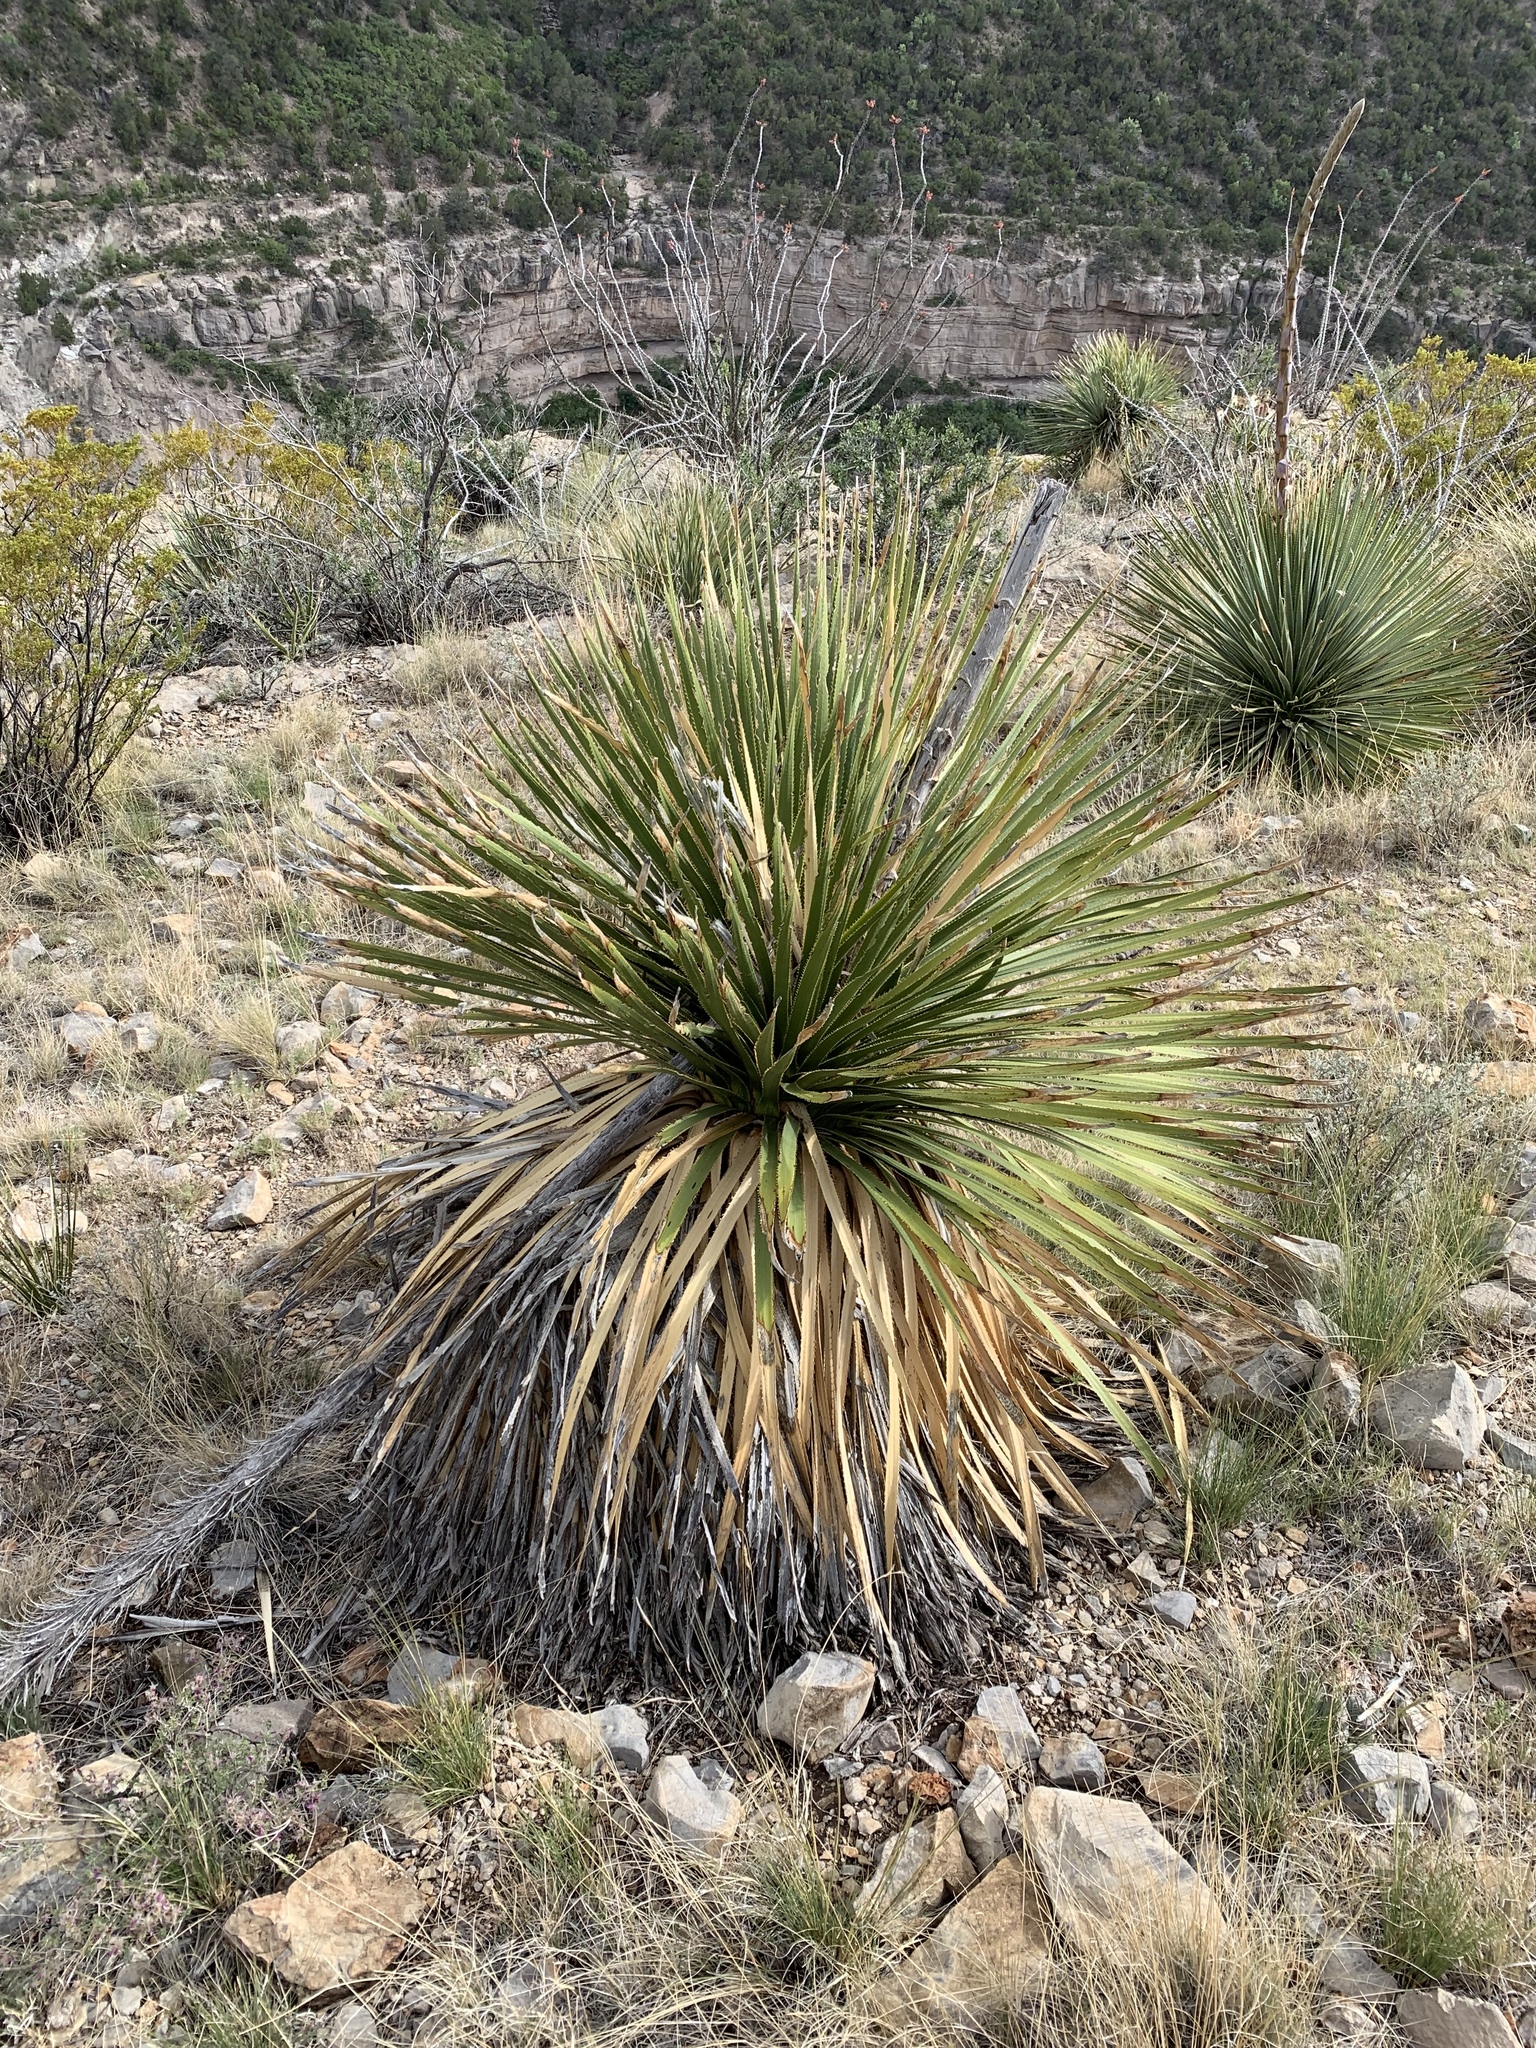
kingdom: Plantae
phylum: Tracheophyta
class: Liliopsida
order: Asparagales
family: Asparagaceae
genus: Dasylirion
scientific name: Dasylirion wheeleri
